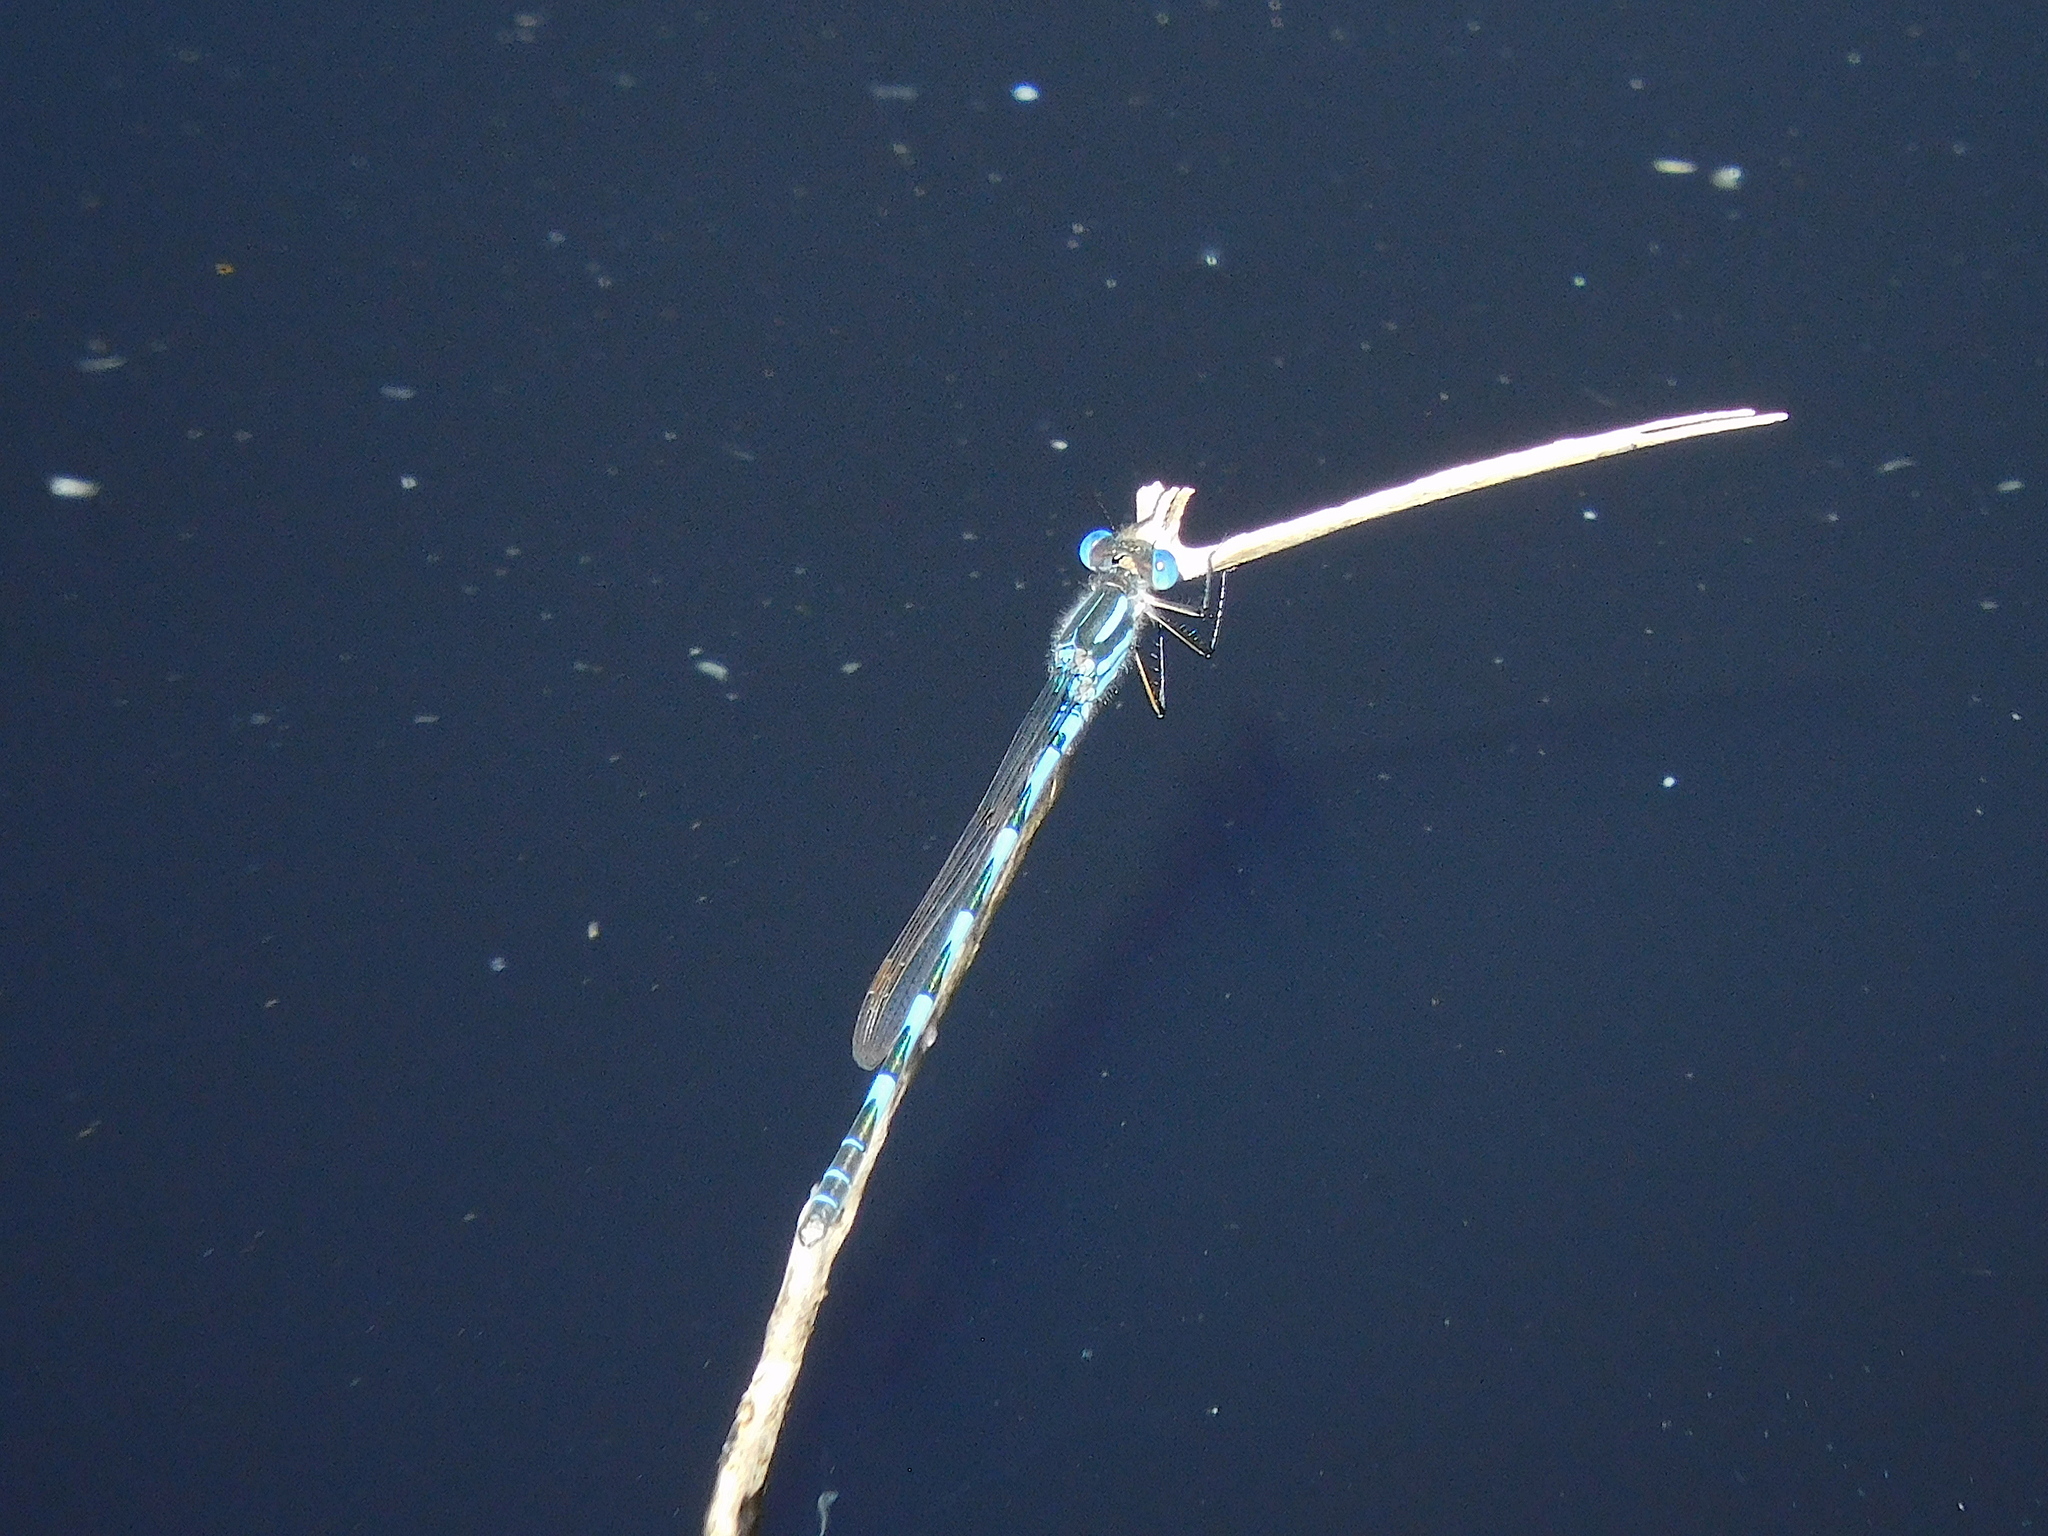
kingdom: Animalia
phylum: Arthropoda
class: Insecta
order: Odonata
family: Lestidae
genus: Austrolestes
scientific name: Austrolestes annulosus
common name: Blue ringtail
